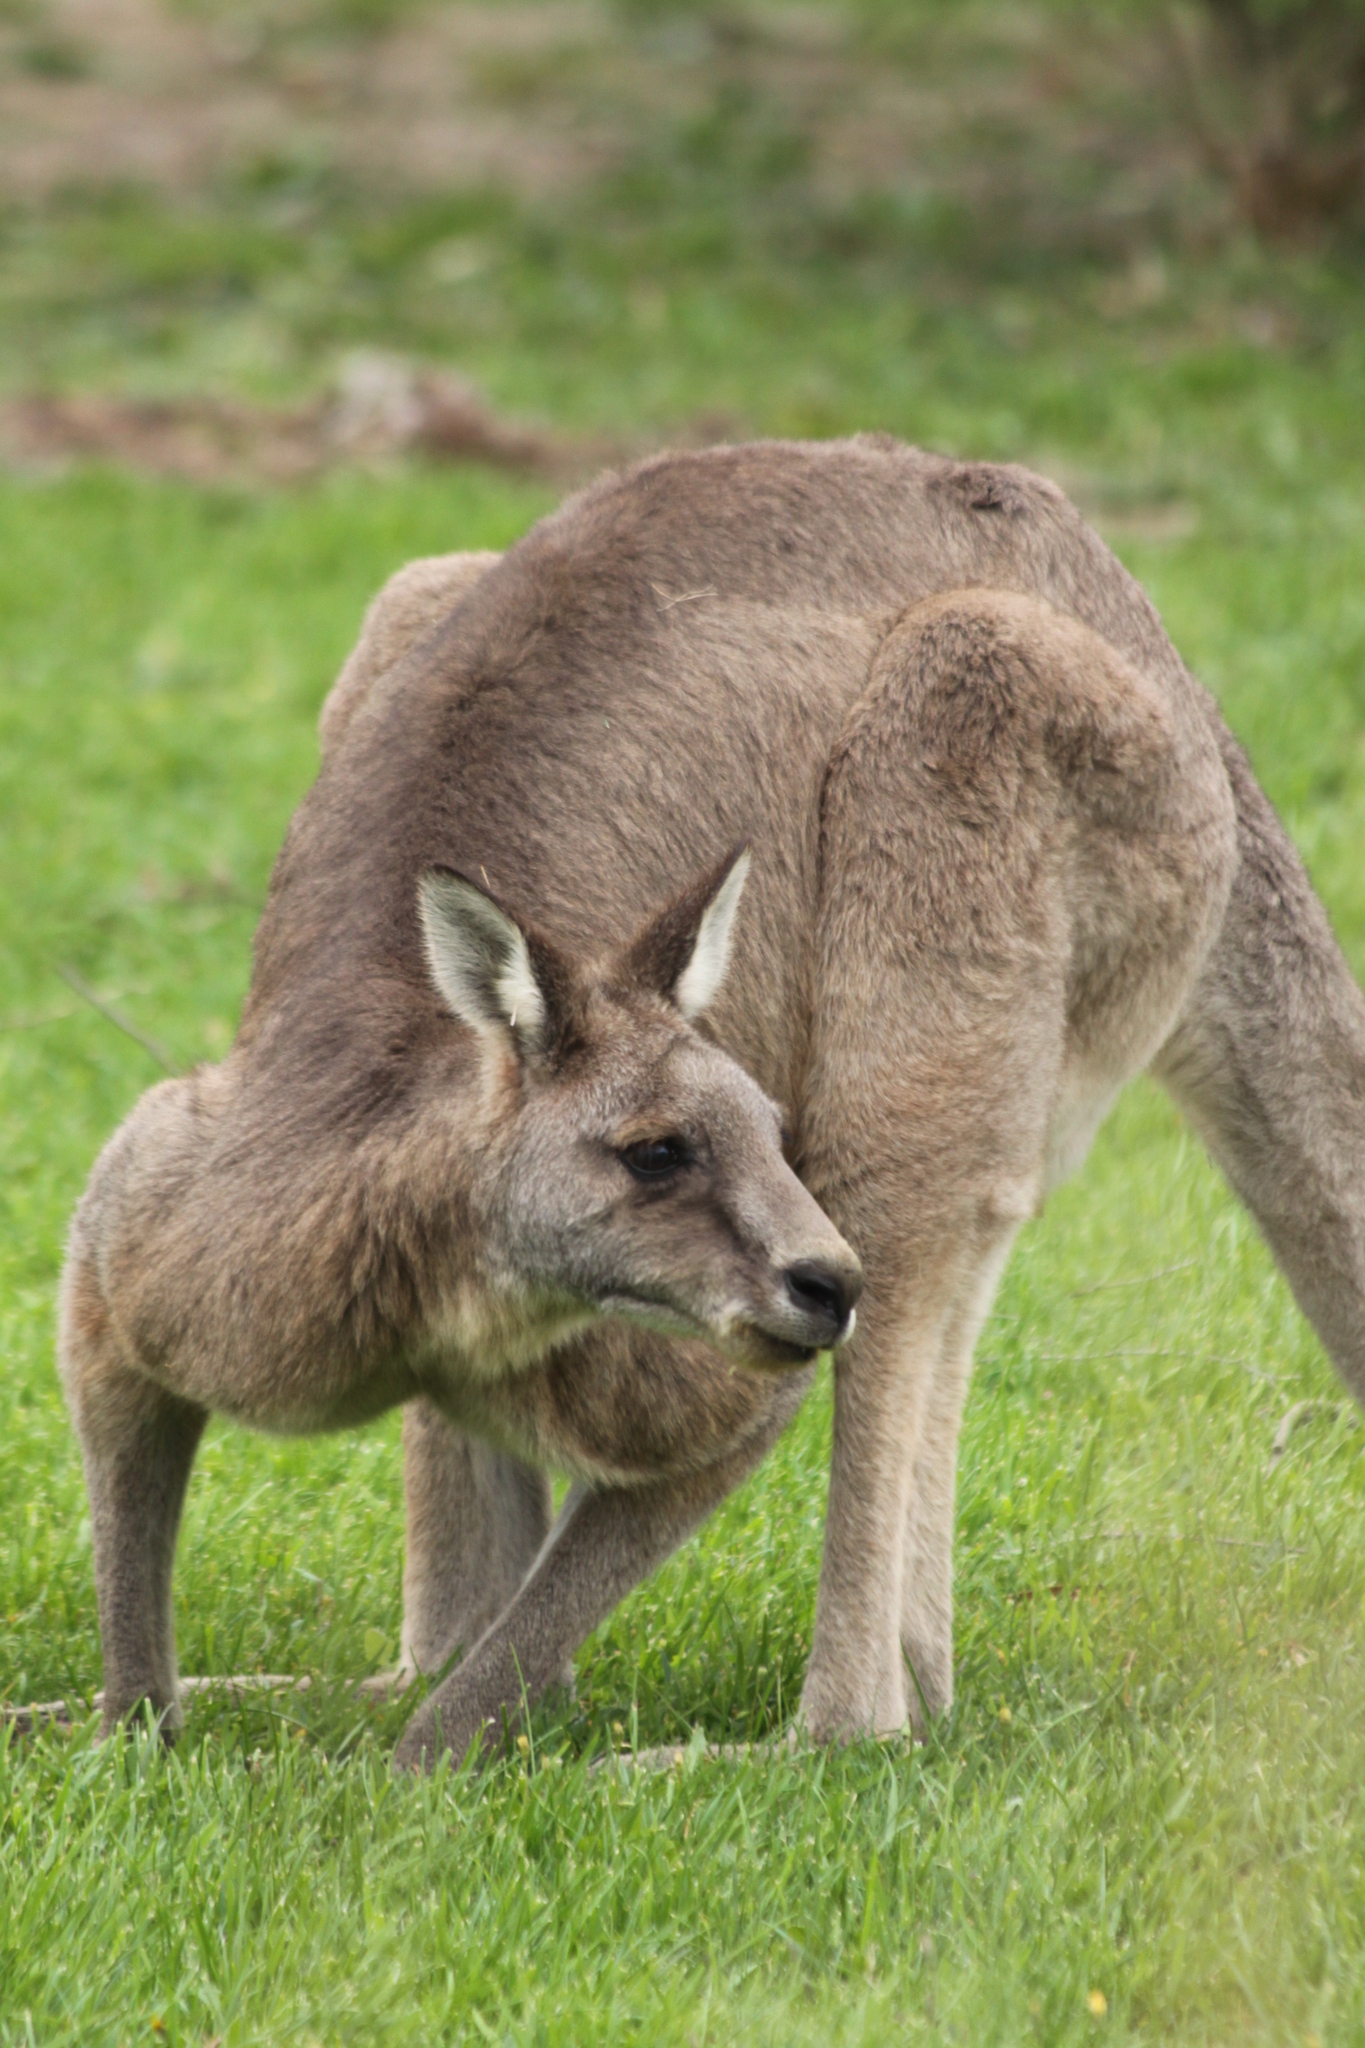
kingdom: Animalia
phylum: Chordata
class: Mammalia
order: Diprotodontia
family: Macropodidae
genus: Macropus
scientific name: Macropus giganteus
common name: Eastern grey kangaroo
